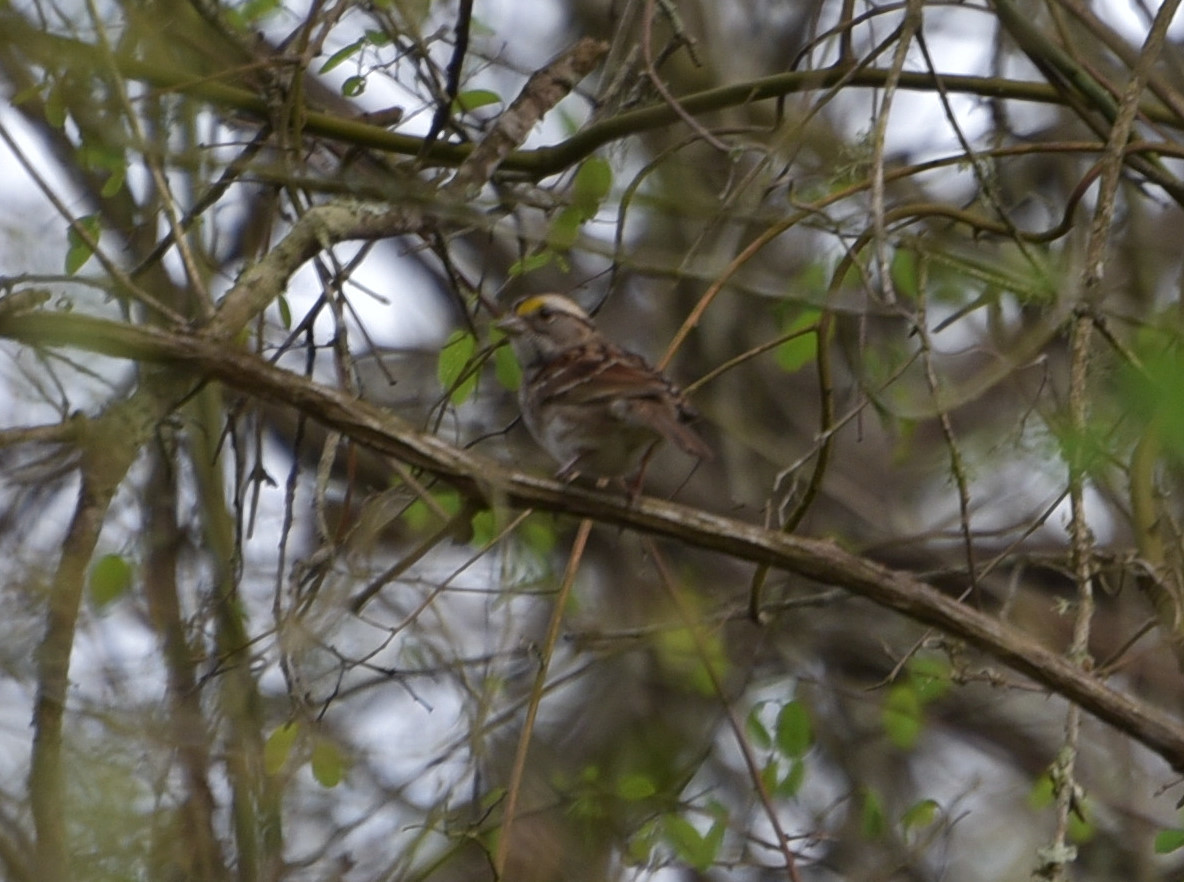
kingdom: Animalia
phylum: Chordata
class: Aves
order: Passeriformes
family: Passerellidae
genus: Zonotrichia
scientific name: Zonotrichia albicollis
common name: White-throated sparrow
